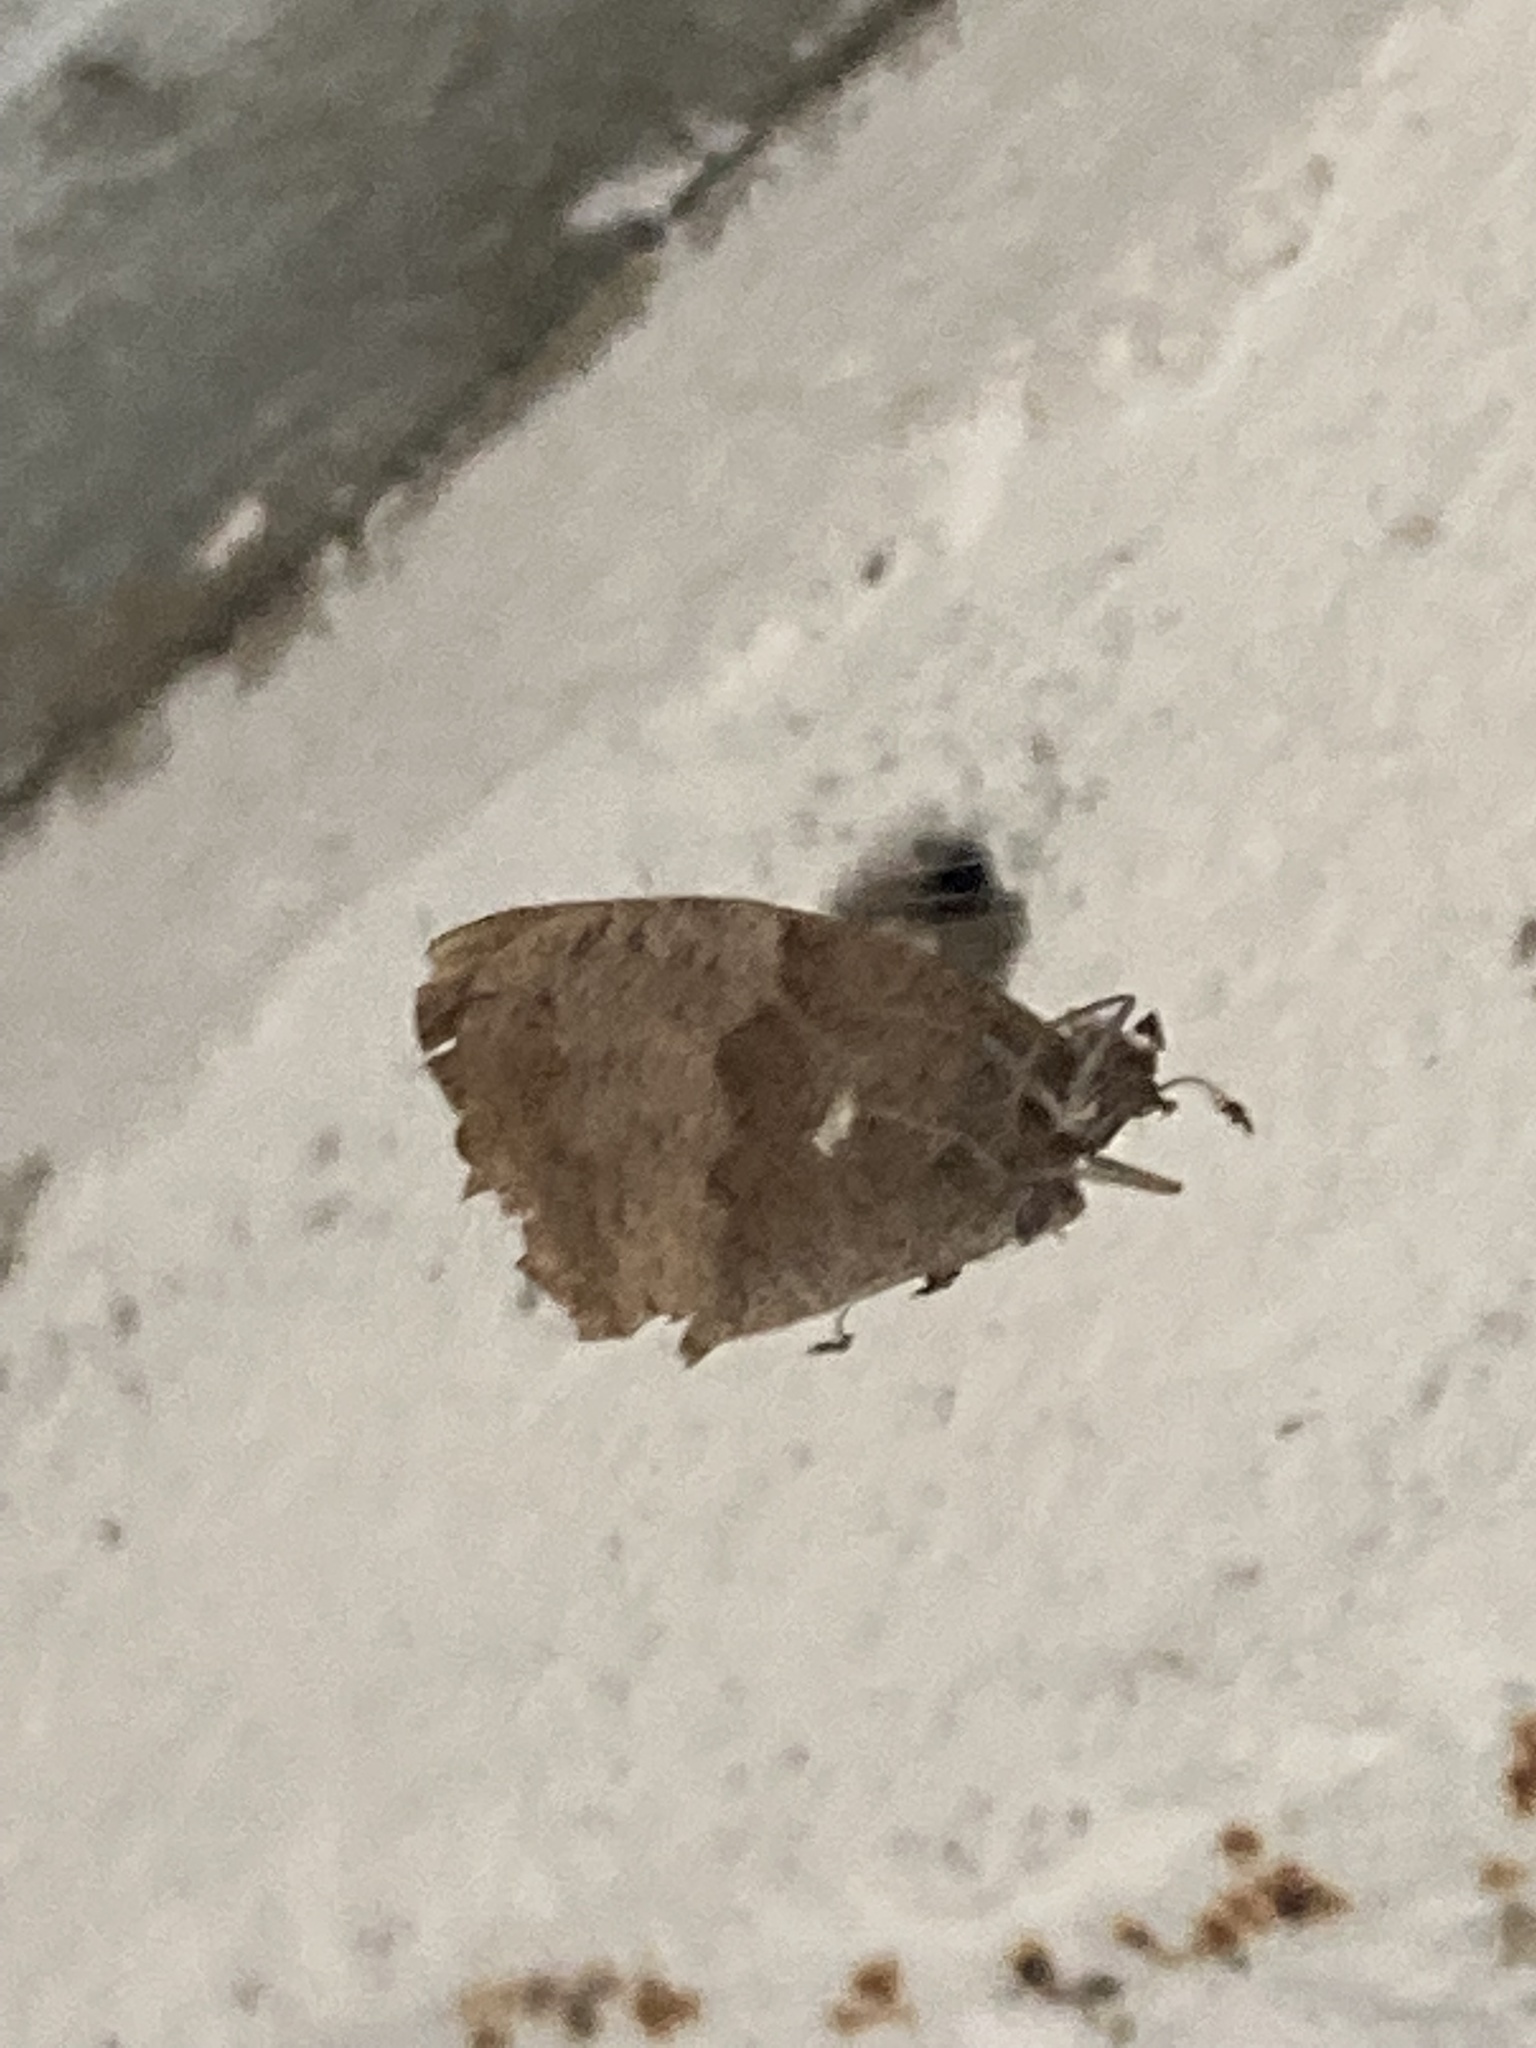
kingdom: Animalia
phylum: Arthropoda
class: Insecta
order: Lepidoptera
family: Nymphalidae
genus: Maniola
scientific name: Maniola jurtina
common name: Meadow brown
